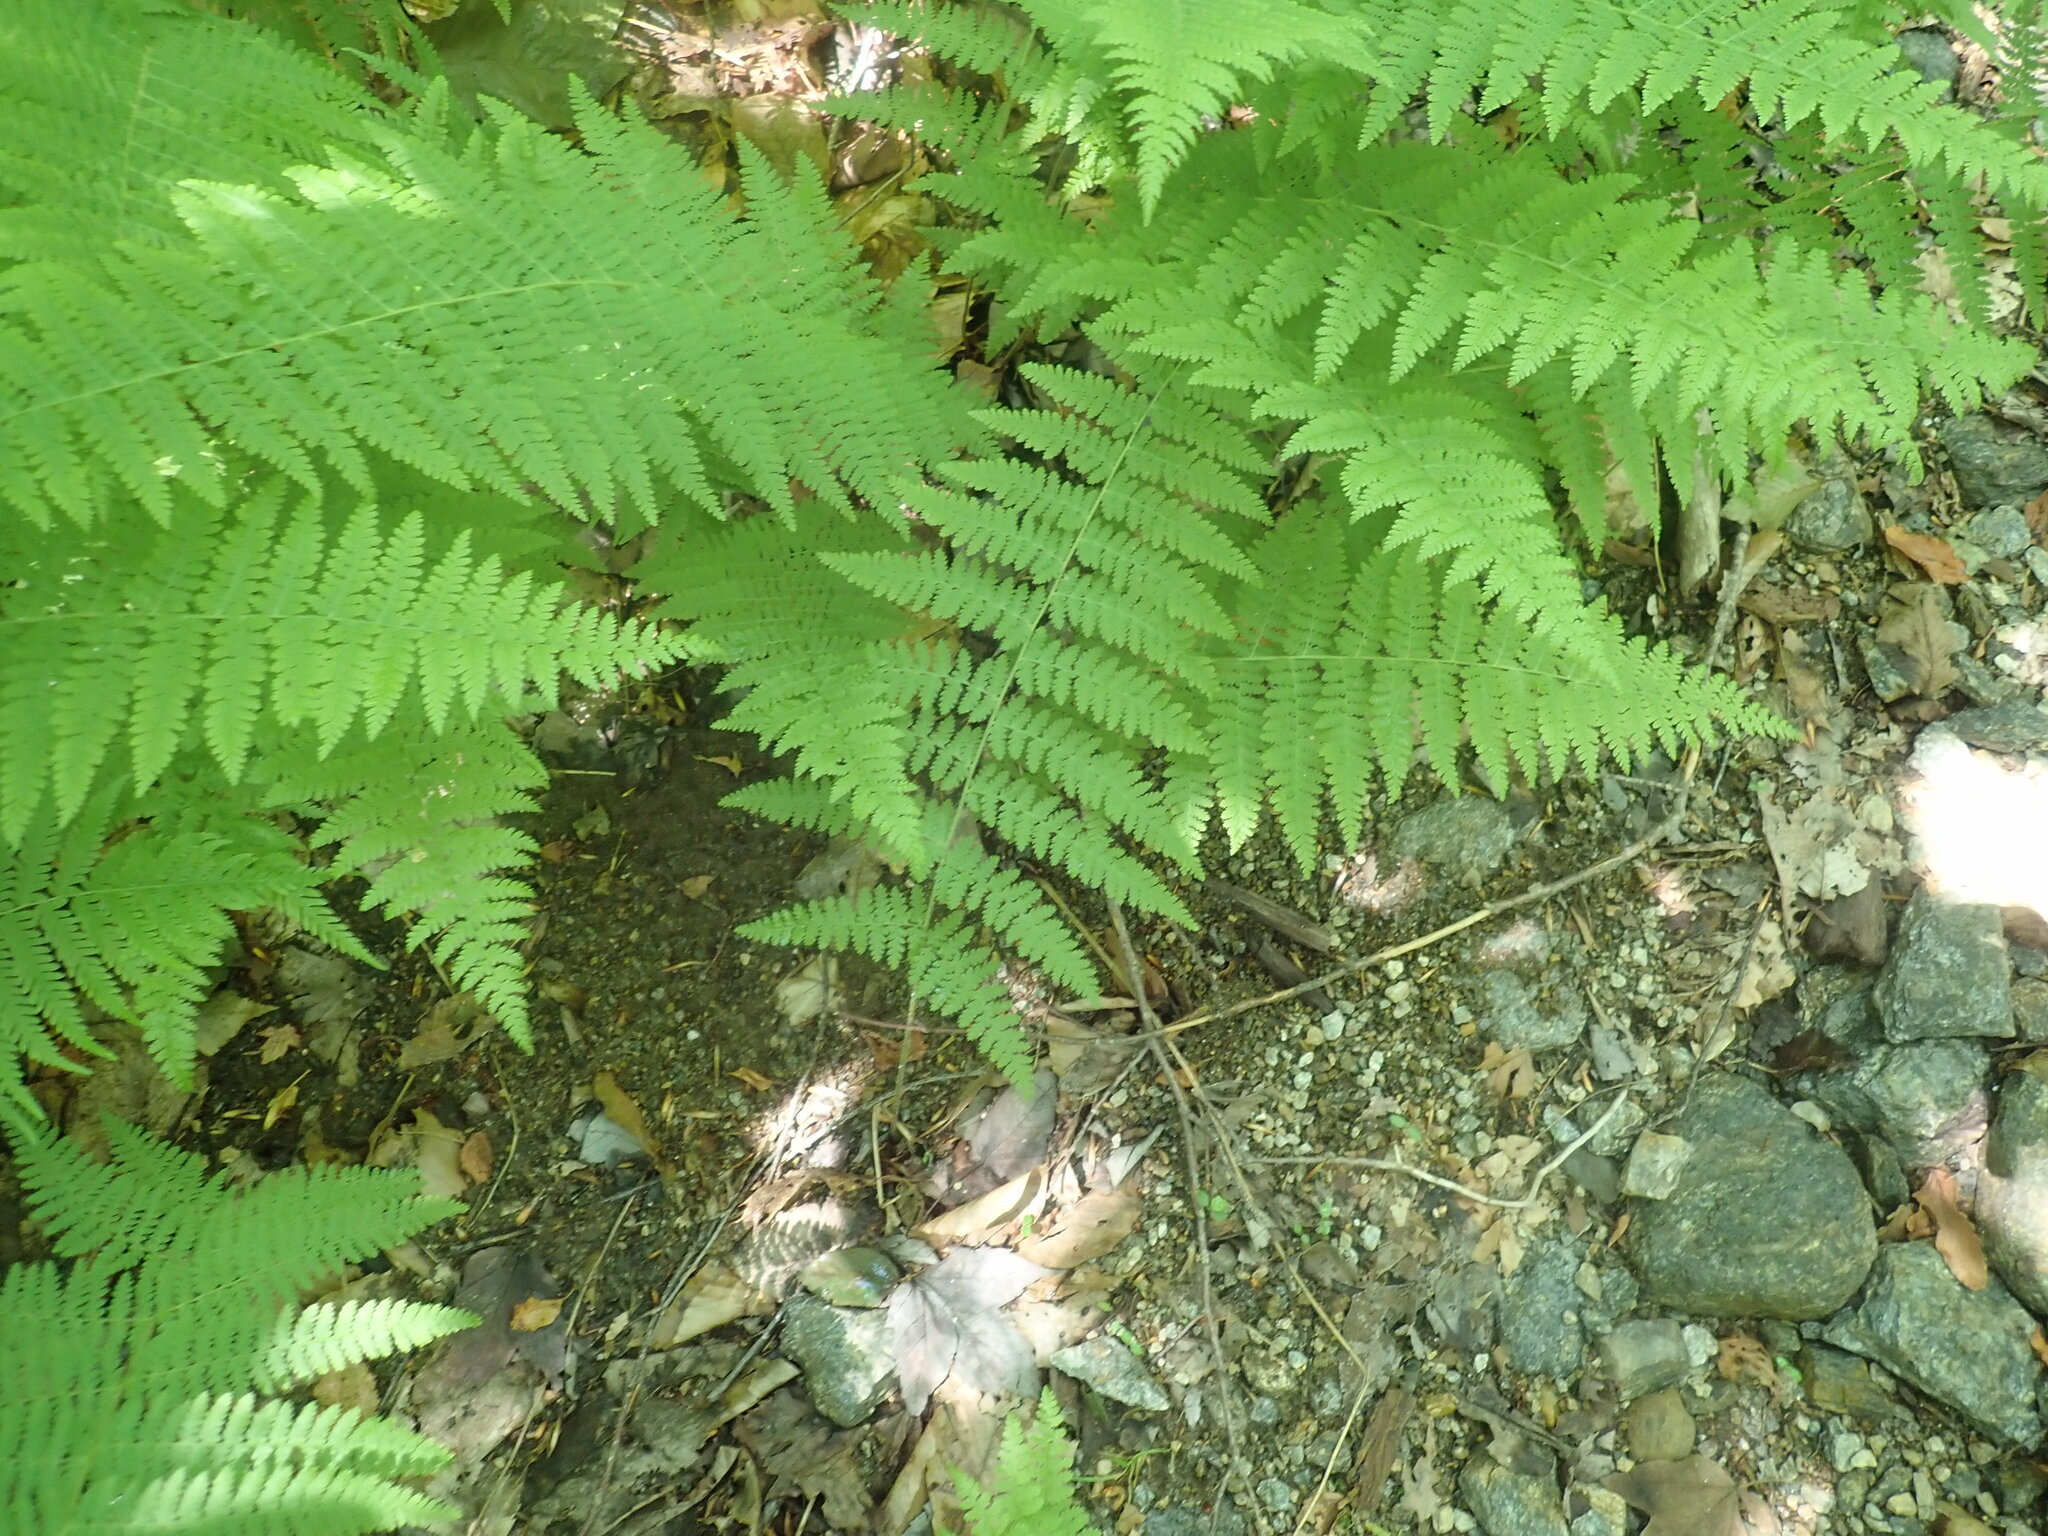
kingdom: Plantae
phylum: Tracheophyta
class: Polypodiopsida
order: Polypodiales
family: Dennstaedtiaceae
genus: Sitobolium
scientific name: Sitobolium punctilobum
